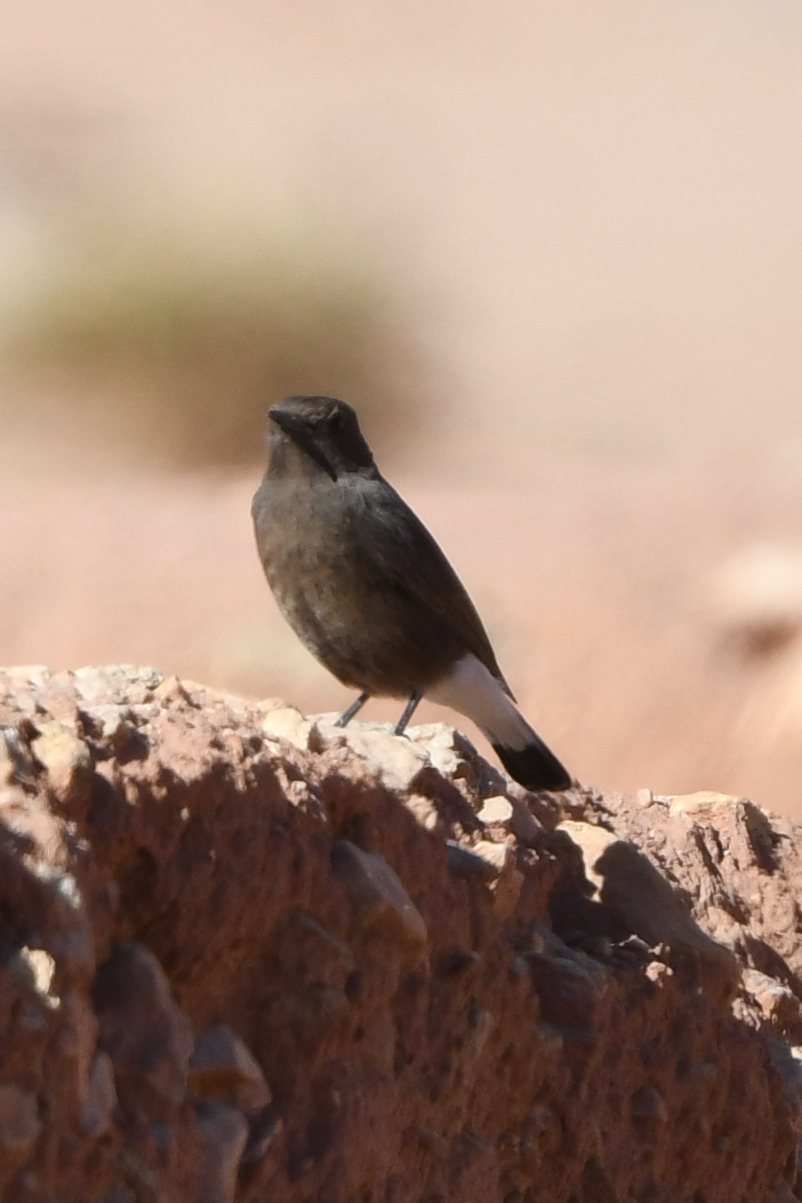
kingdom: Animalia
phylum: Chordata
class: Aves
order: Passeriformes
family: Muscicapidae
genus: Oenanthe
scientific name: Oenanthe leucura
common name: Black wheatear
